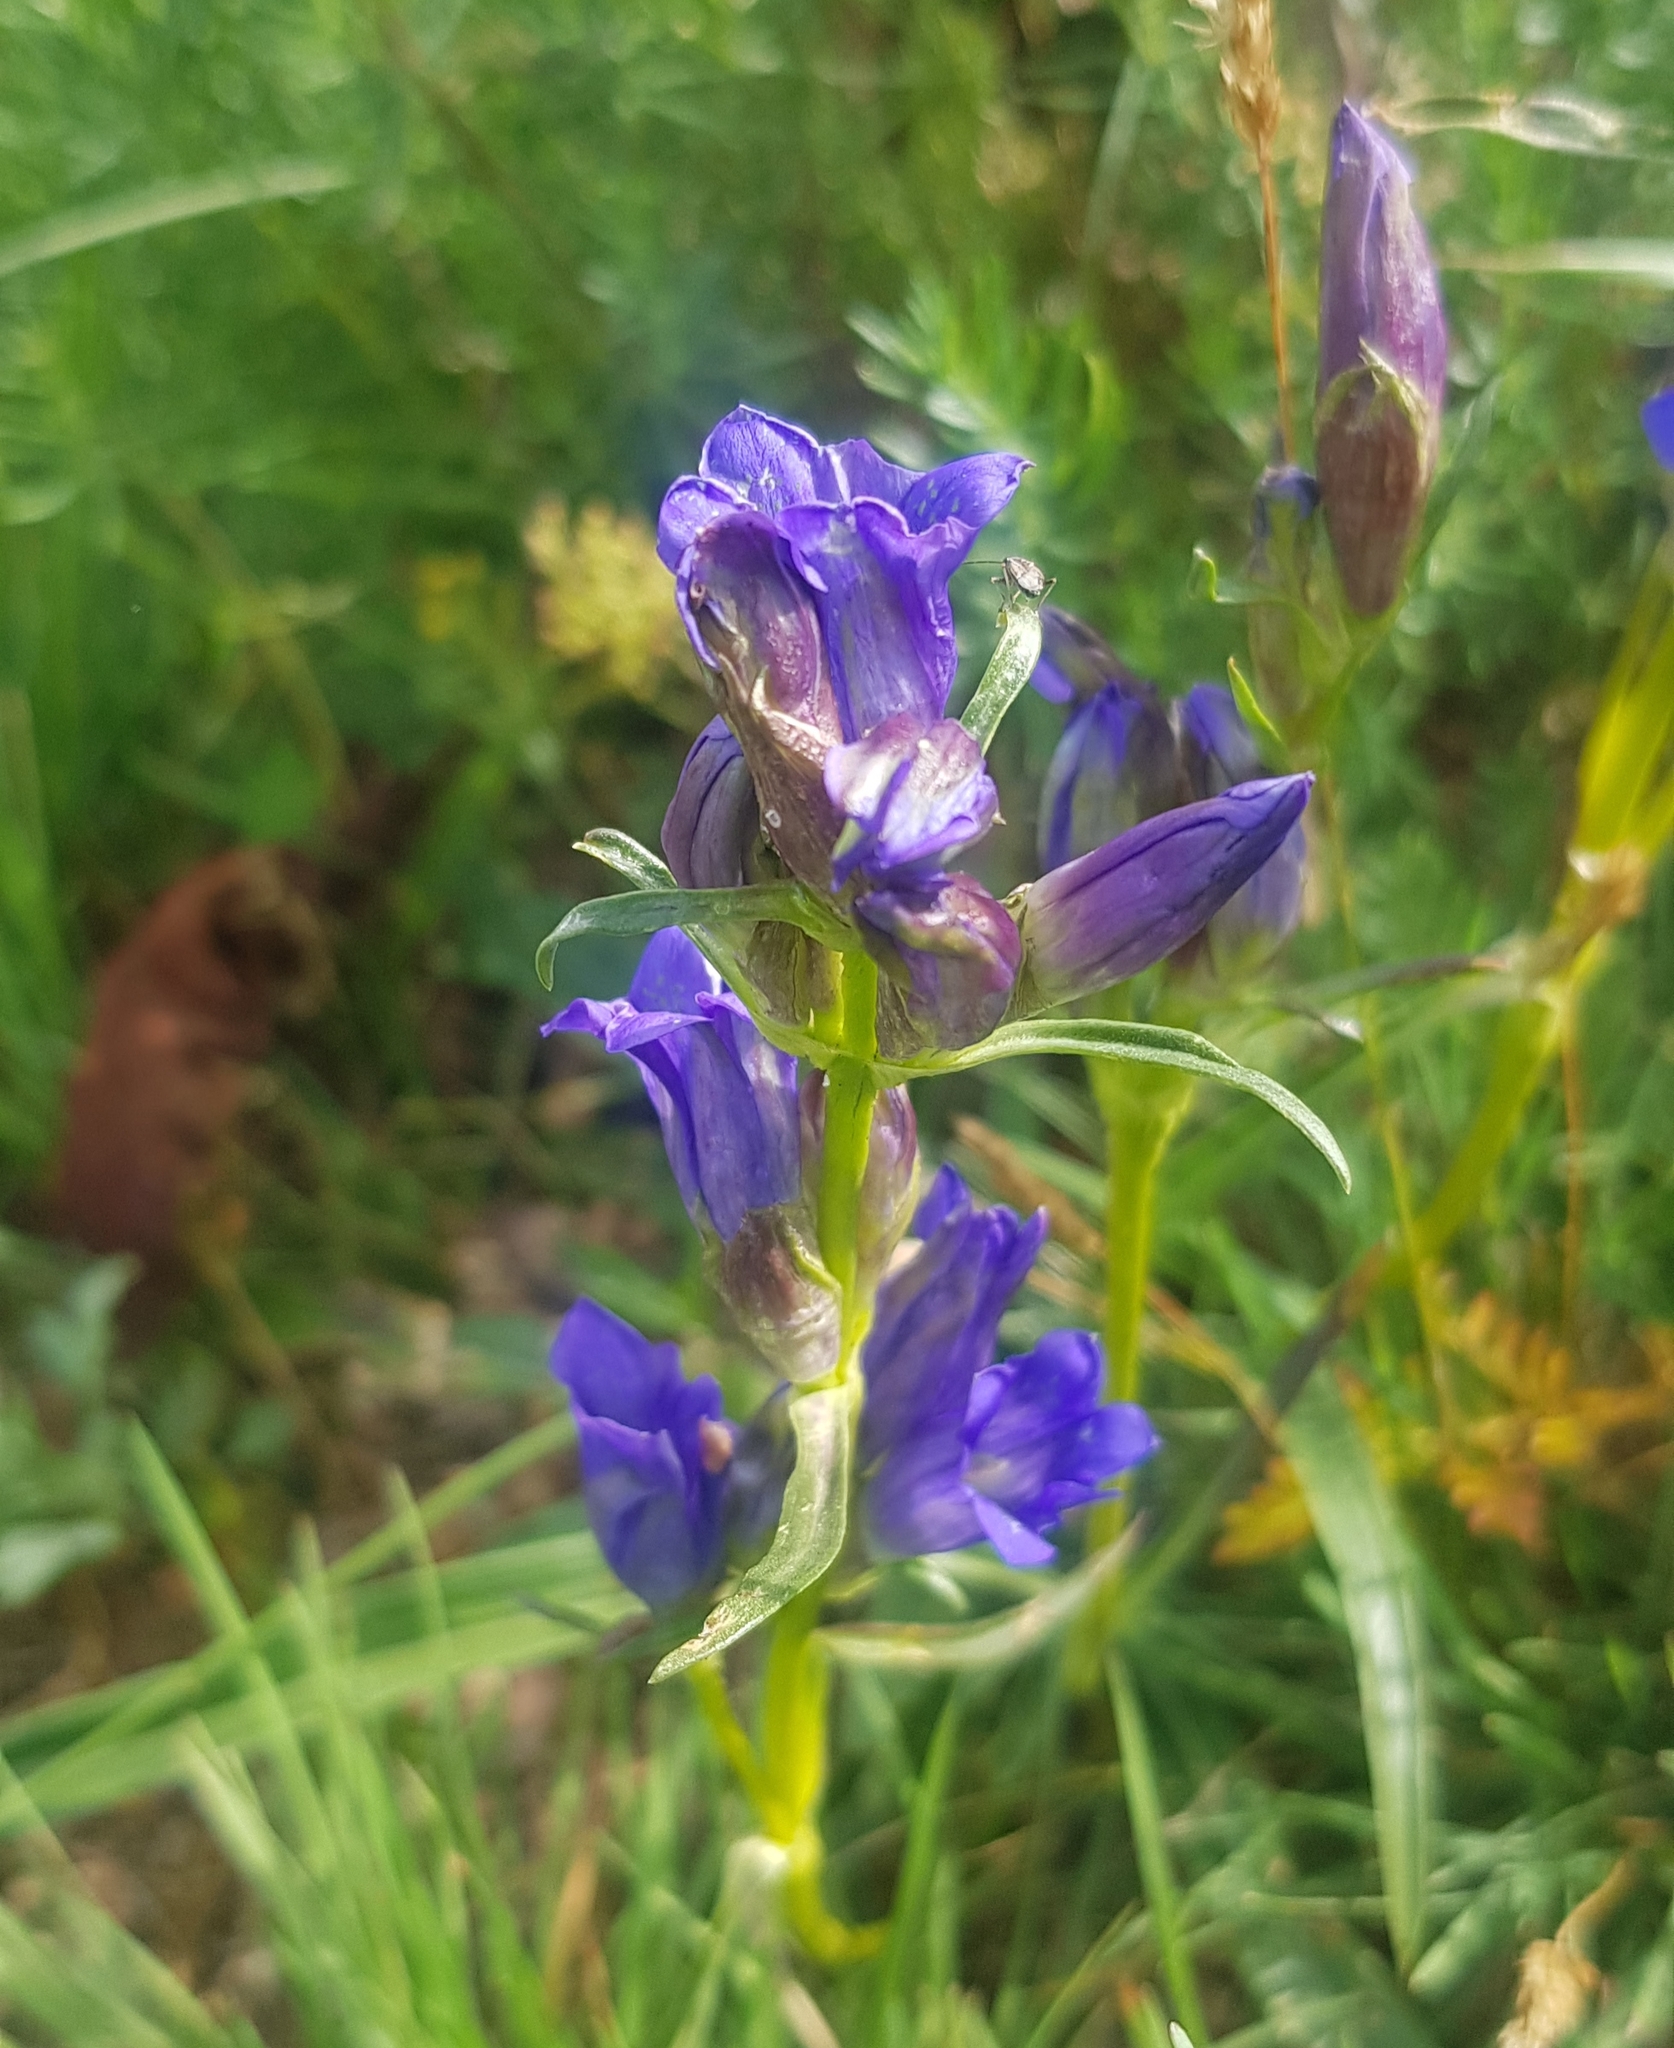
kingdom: Plantae
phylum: Tracheophyta
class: Magnoliopsida
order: Gentianales
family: Gentianaceae
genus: Gentiana
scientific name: Gentiana decumbens
